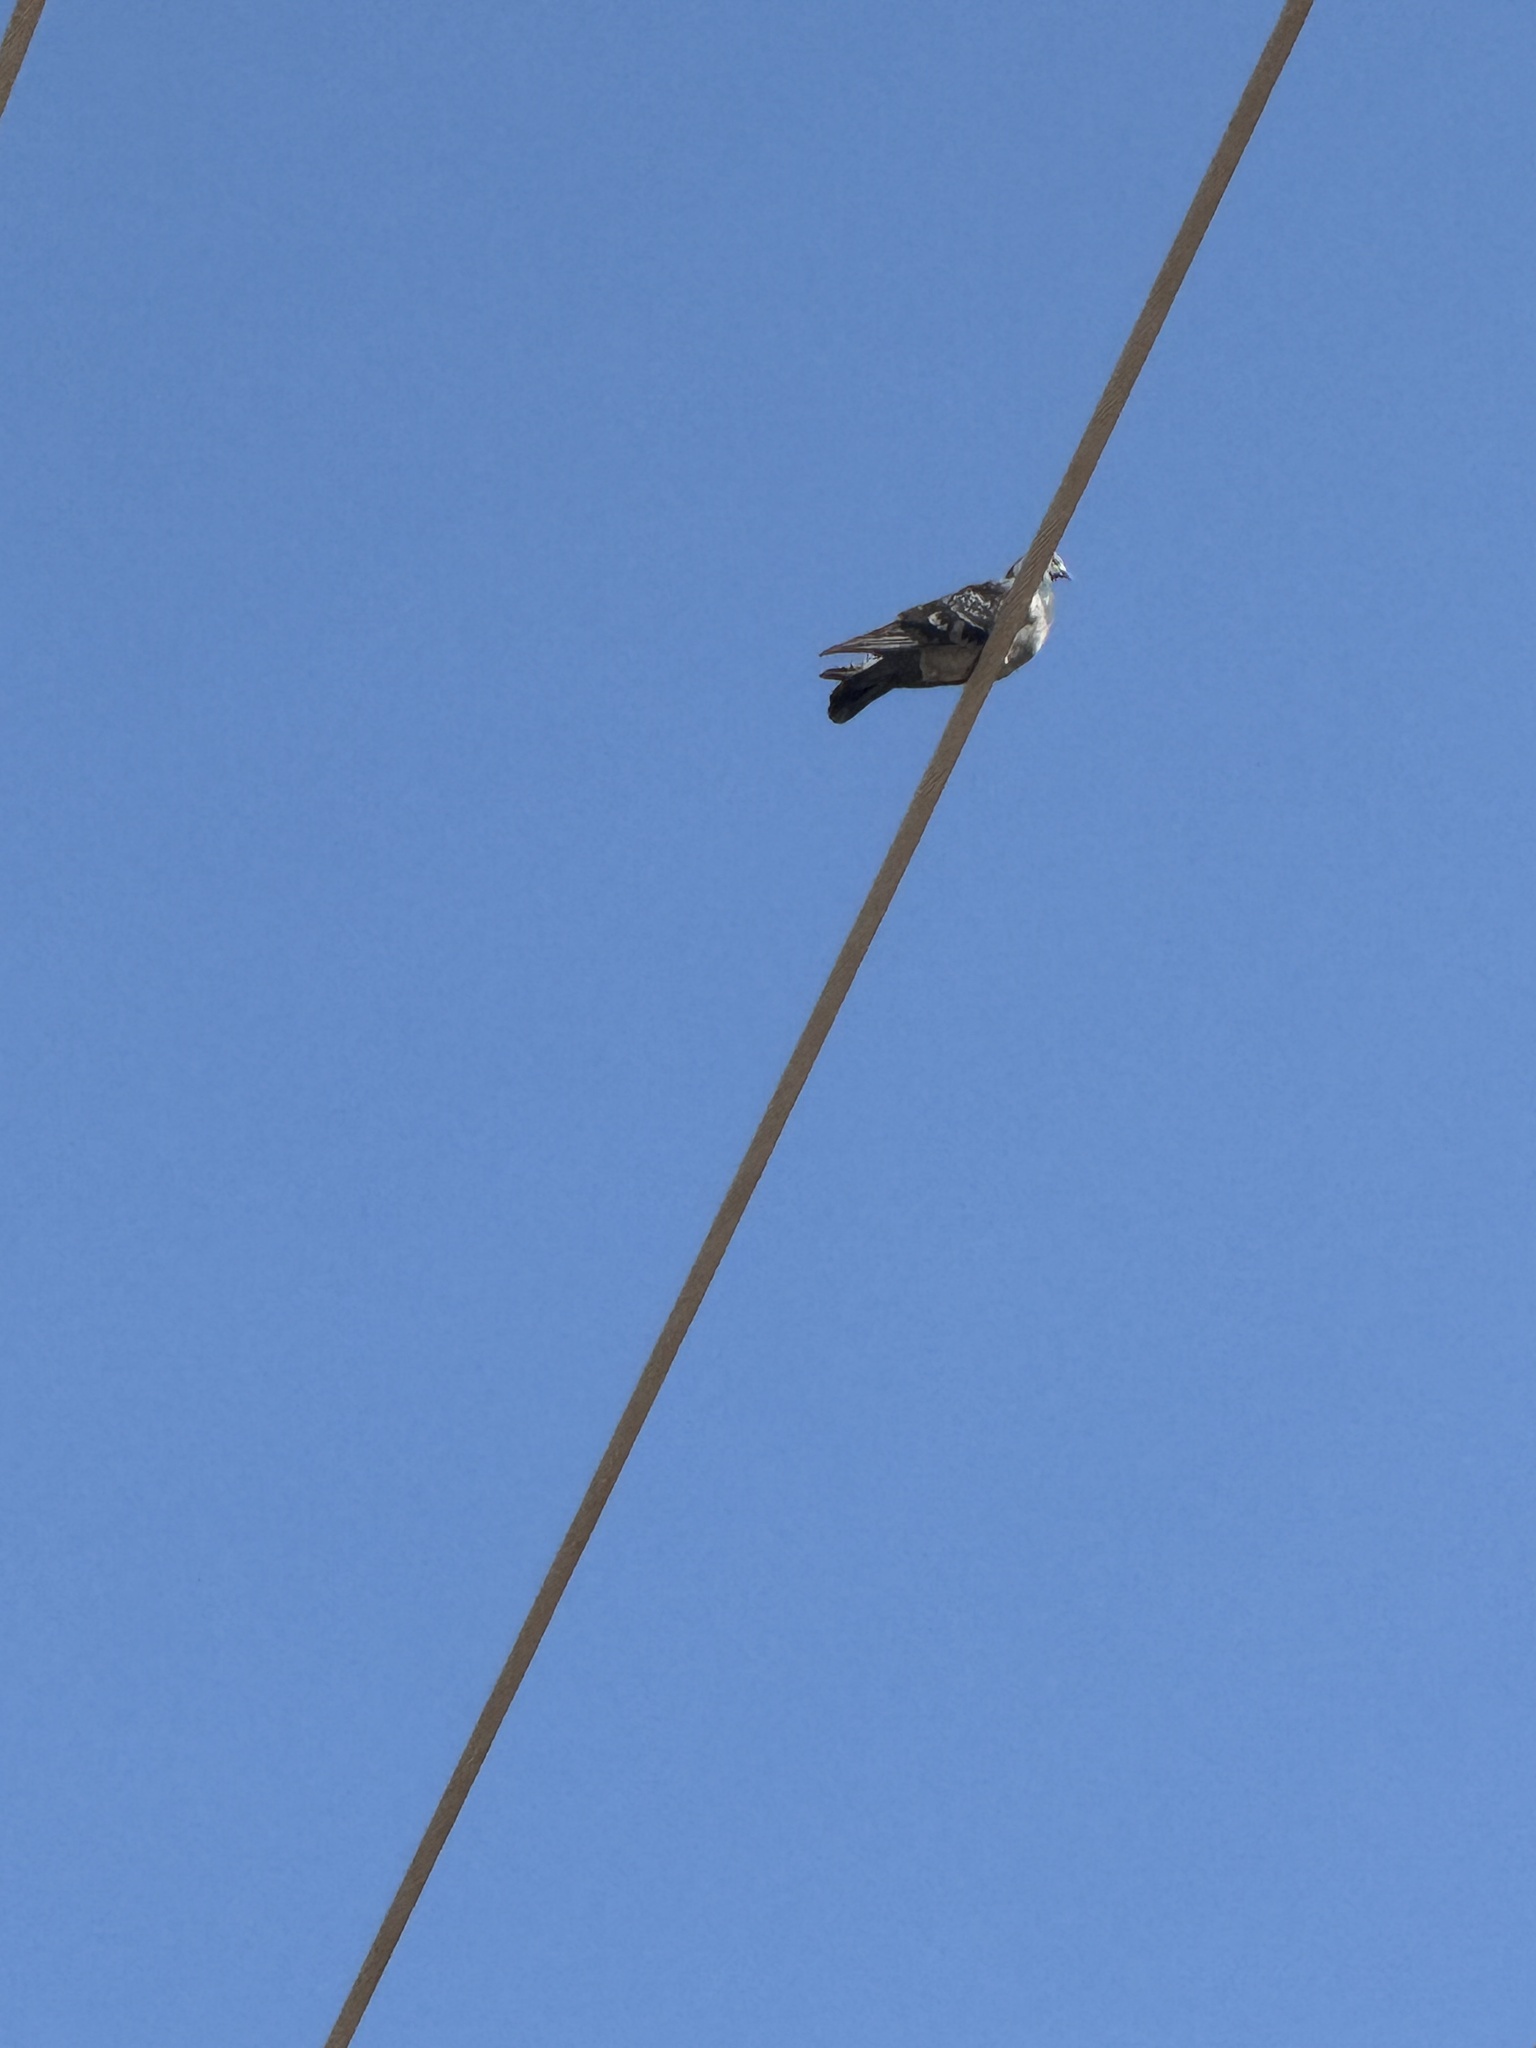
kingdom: Animalia
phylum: Chordata
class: Aves
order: Columbiformes
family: Columbidae
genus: Columba
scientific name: Columba livia
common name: Rock pigeon
